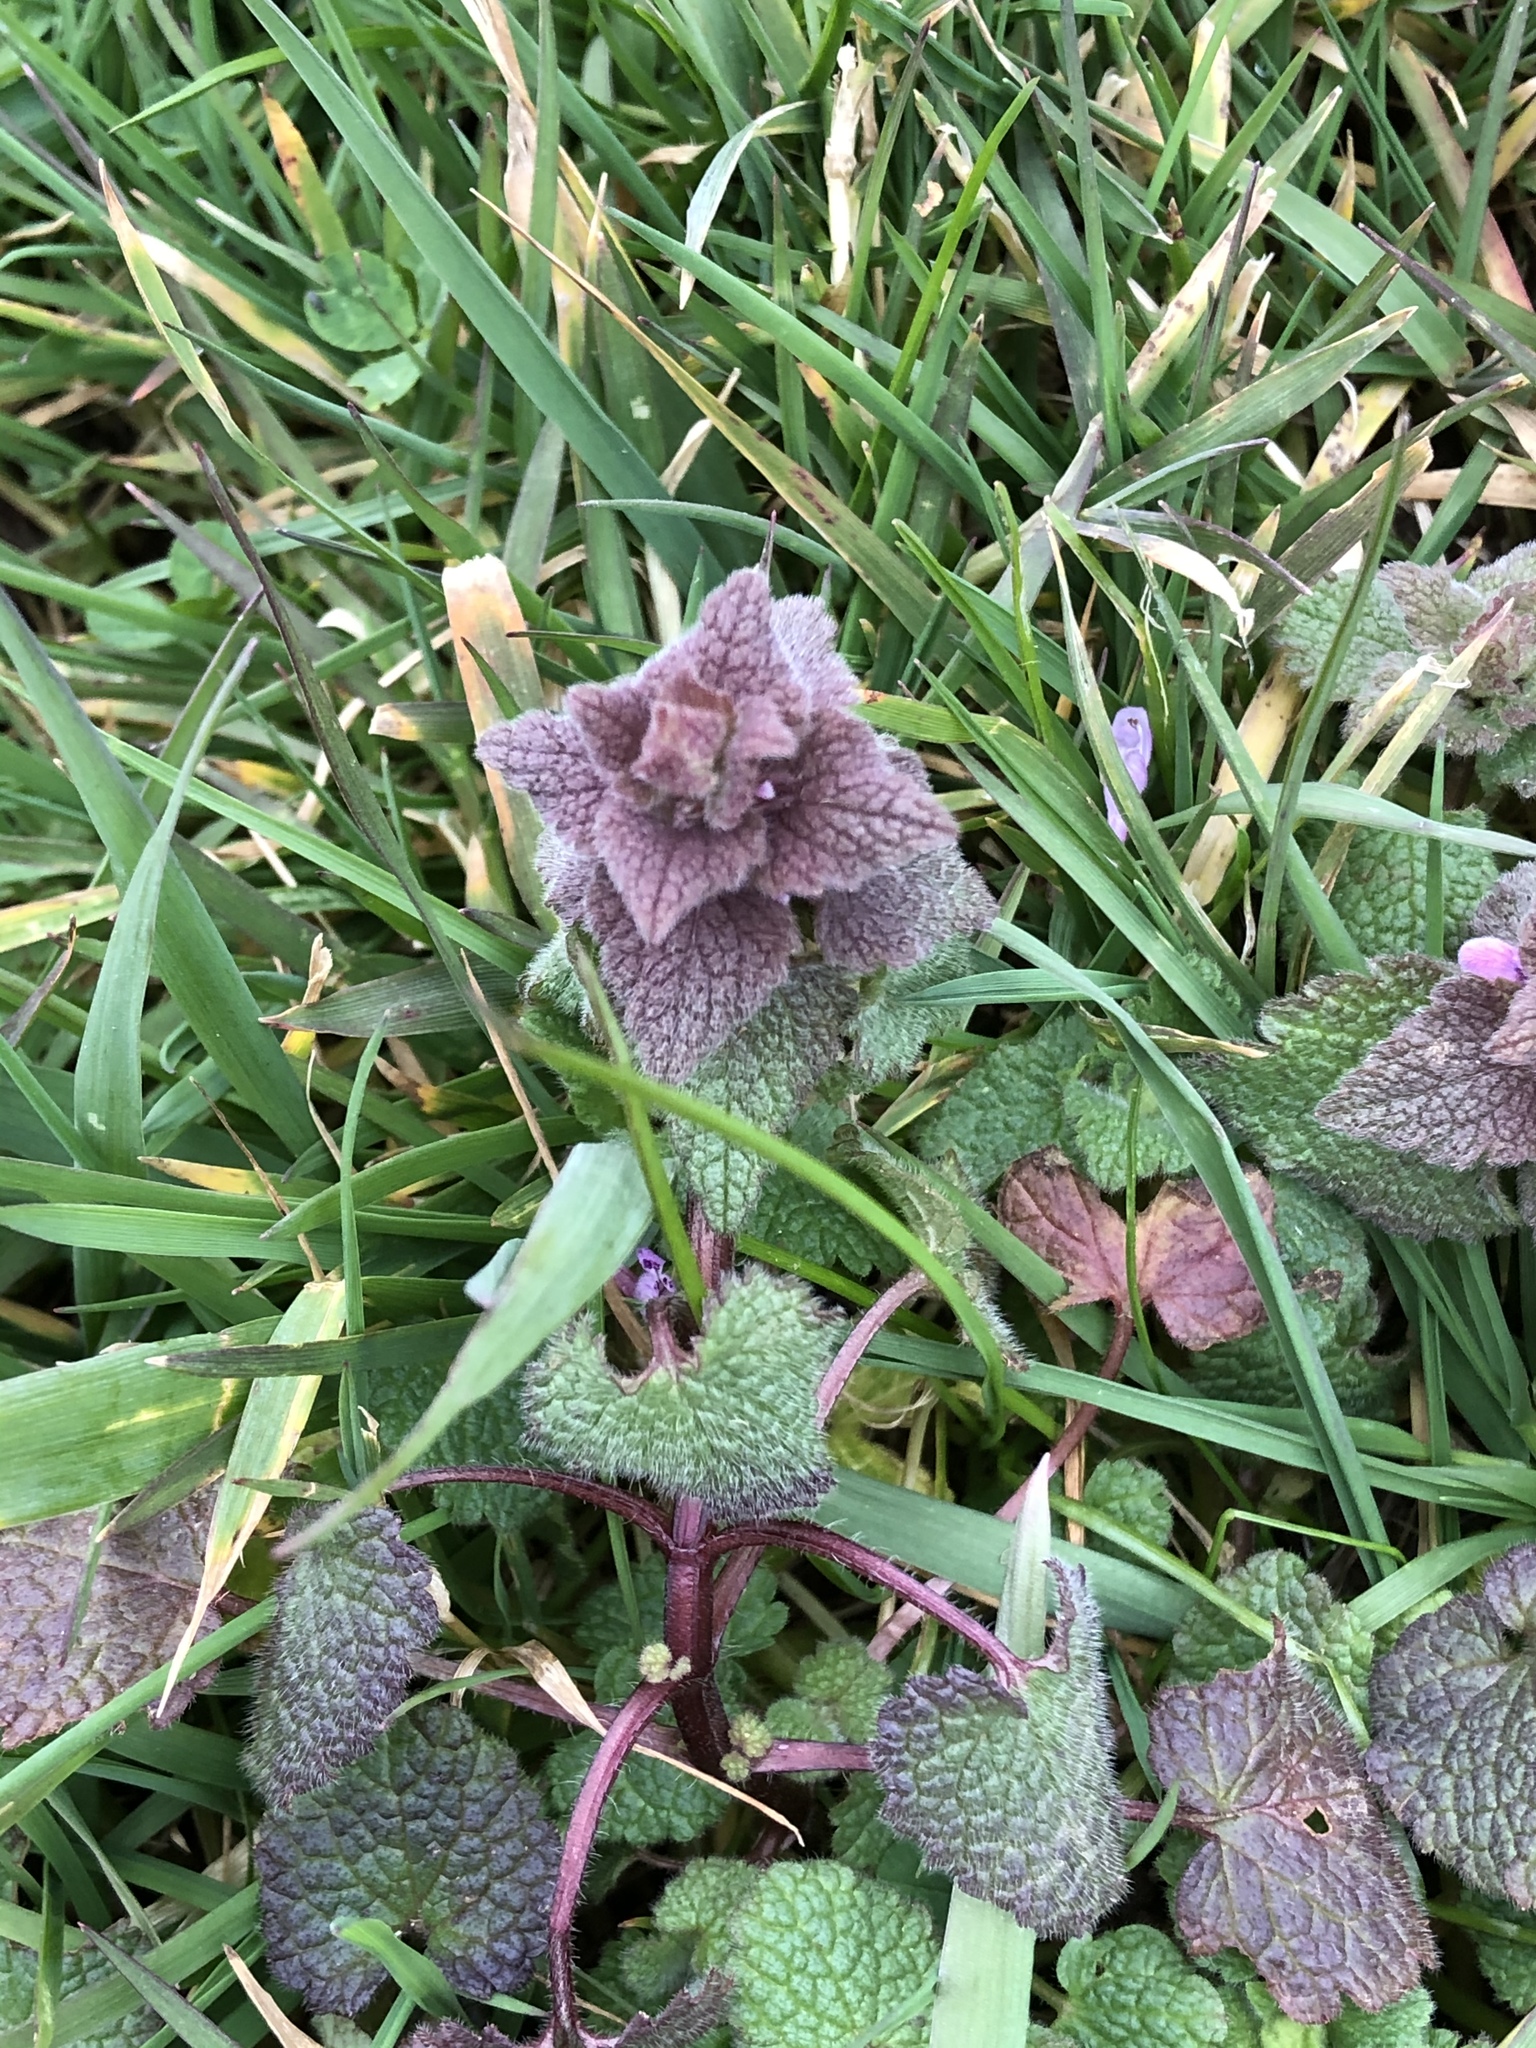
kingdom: Plantae
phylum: Tracheophyta
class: Magnoliopsida
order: Lamiales
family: Lamiaceae
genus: Lamium
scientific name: Lamium purpureum
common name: Red dead-nettle
